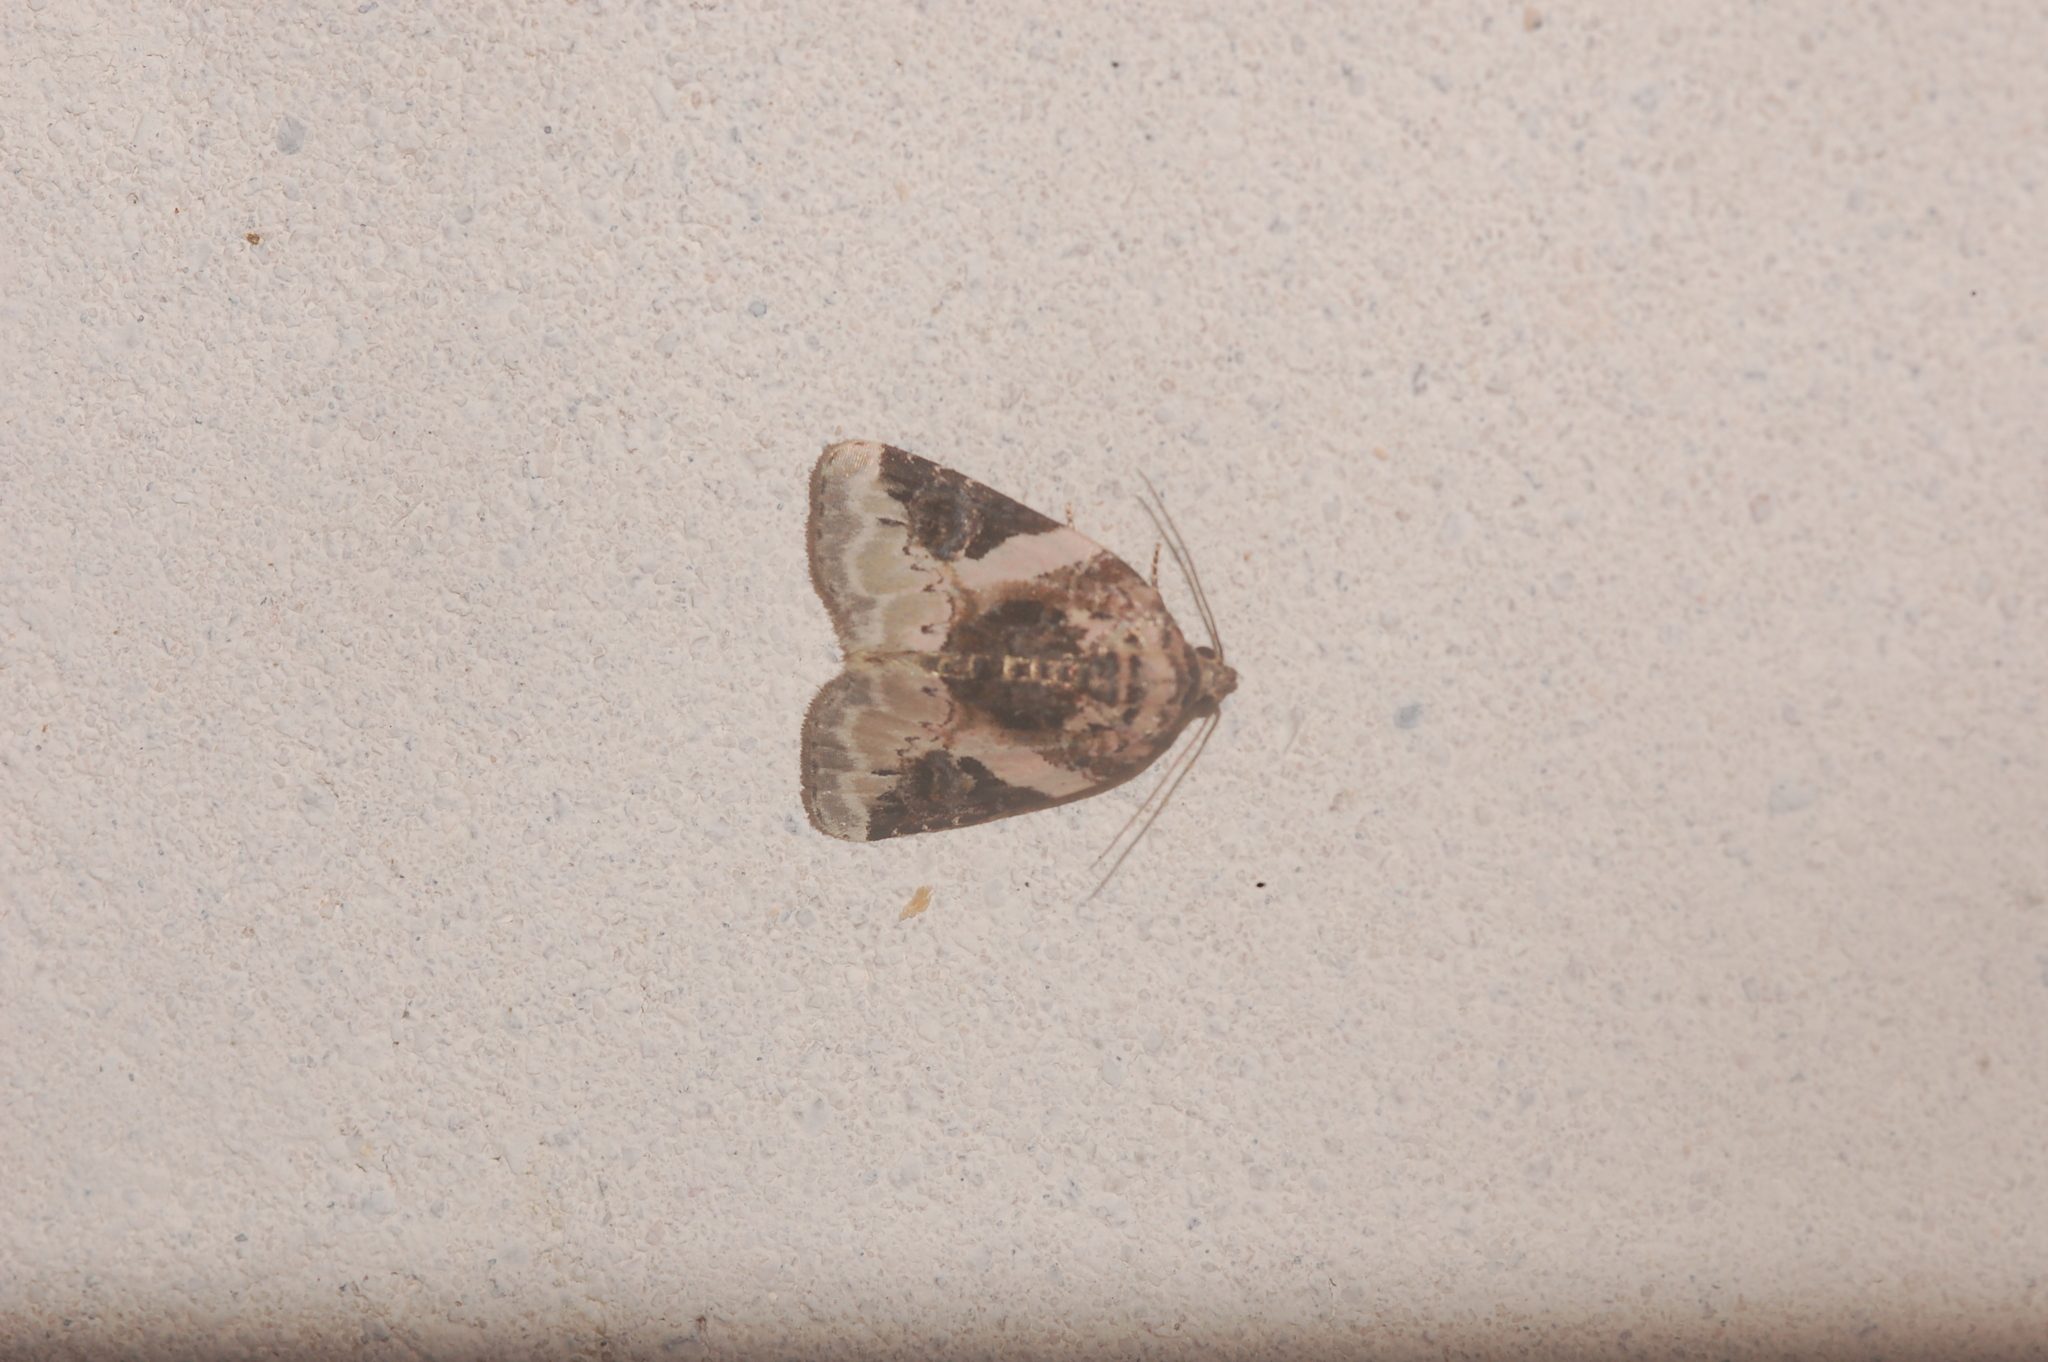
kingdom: Animalia
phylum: Arthropoda
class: Insecta
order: Lepidoptera
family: Noctuidae
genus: Pseudeustrotia
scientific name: Pseudeustrotia carneola
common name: Pink-barred lithacodia moth
